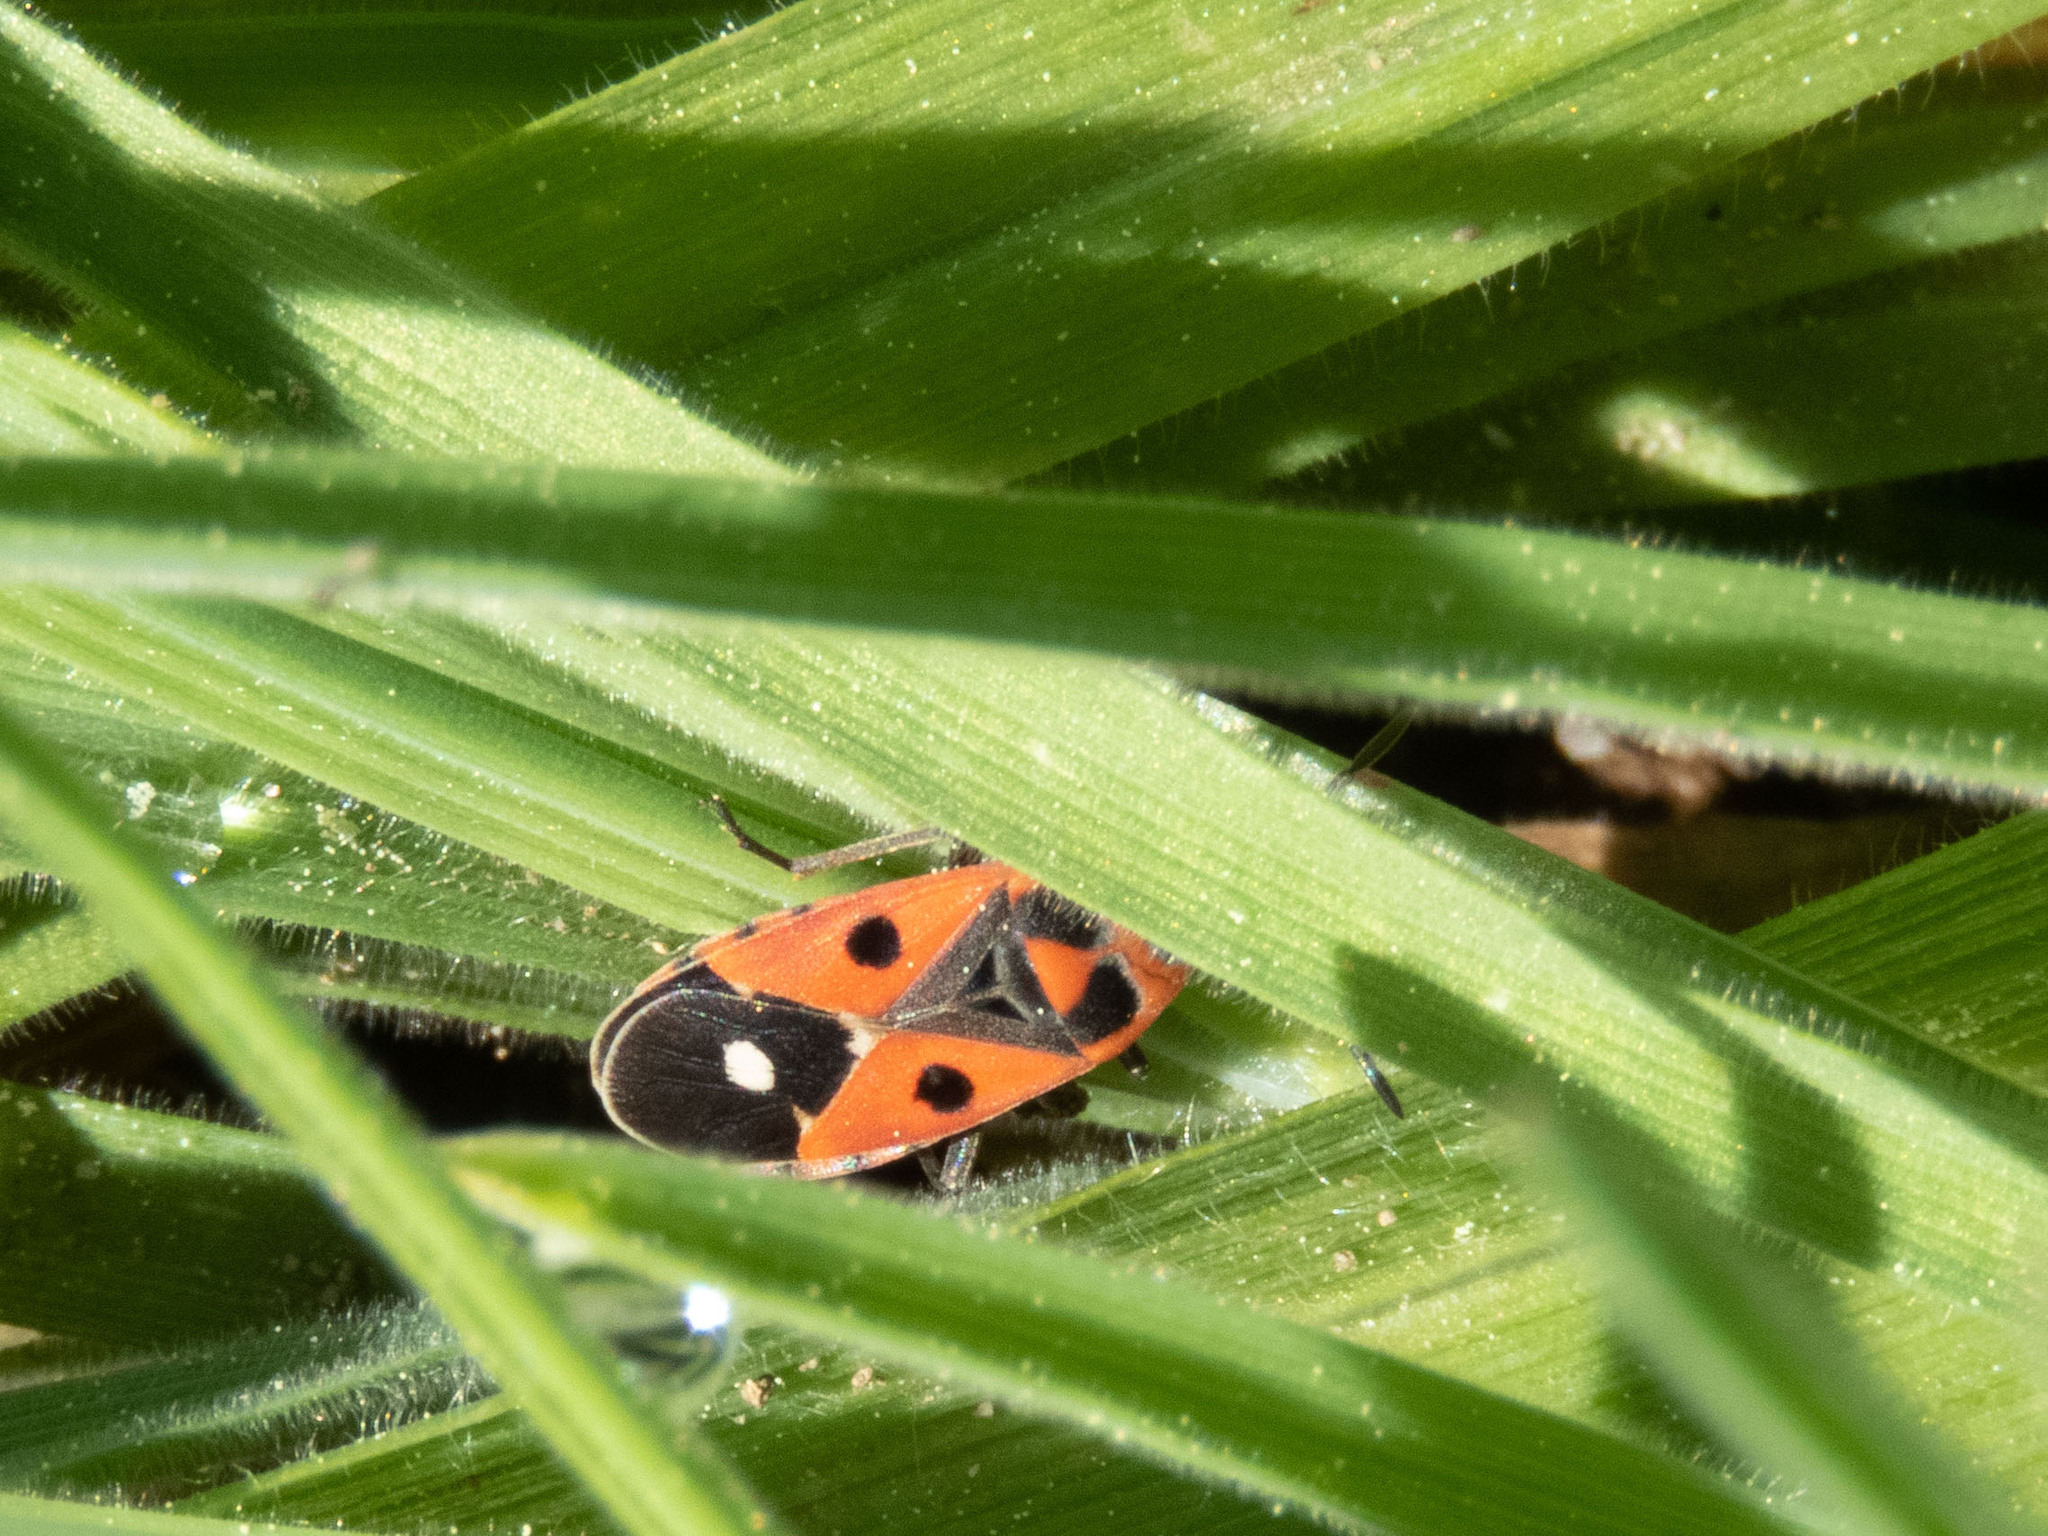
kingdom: Animalia
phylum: Arthropoda
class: Insecta
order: Hemiptera
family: Lygaeidae
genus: Melanocoryphus
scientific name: Melanocoryphus albomaculatus
